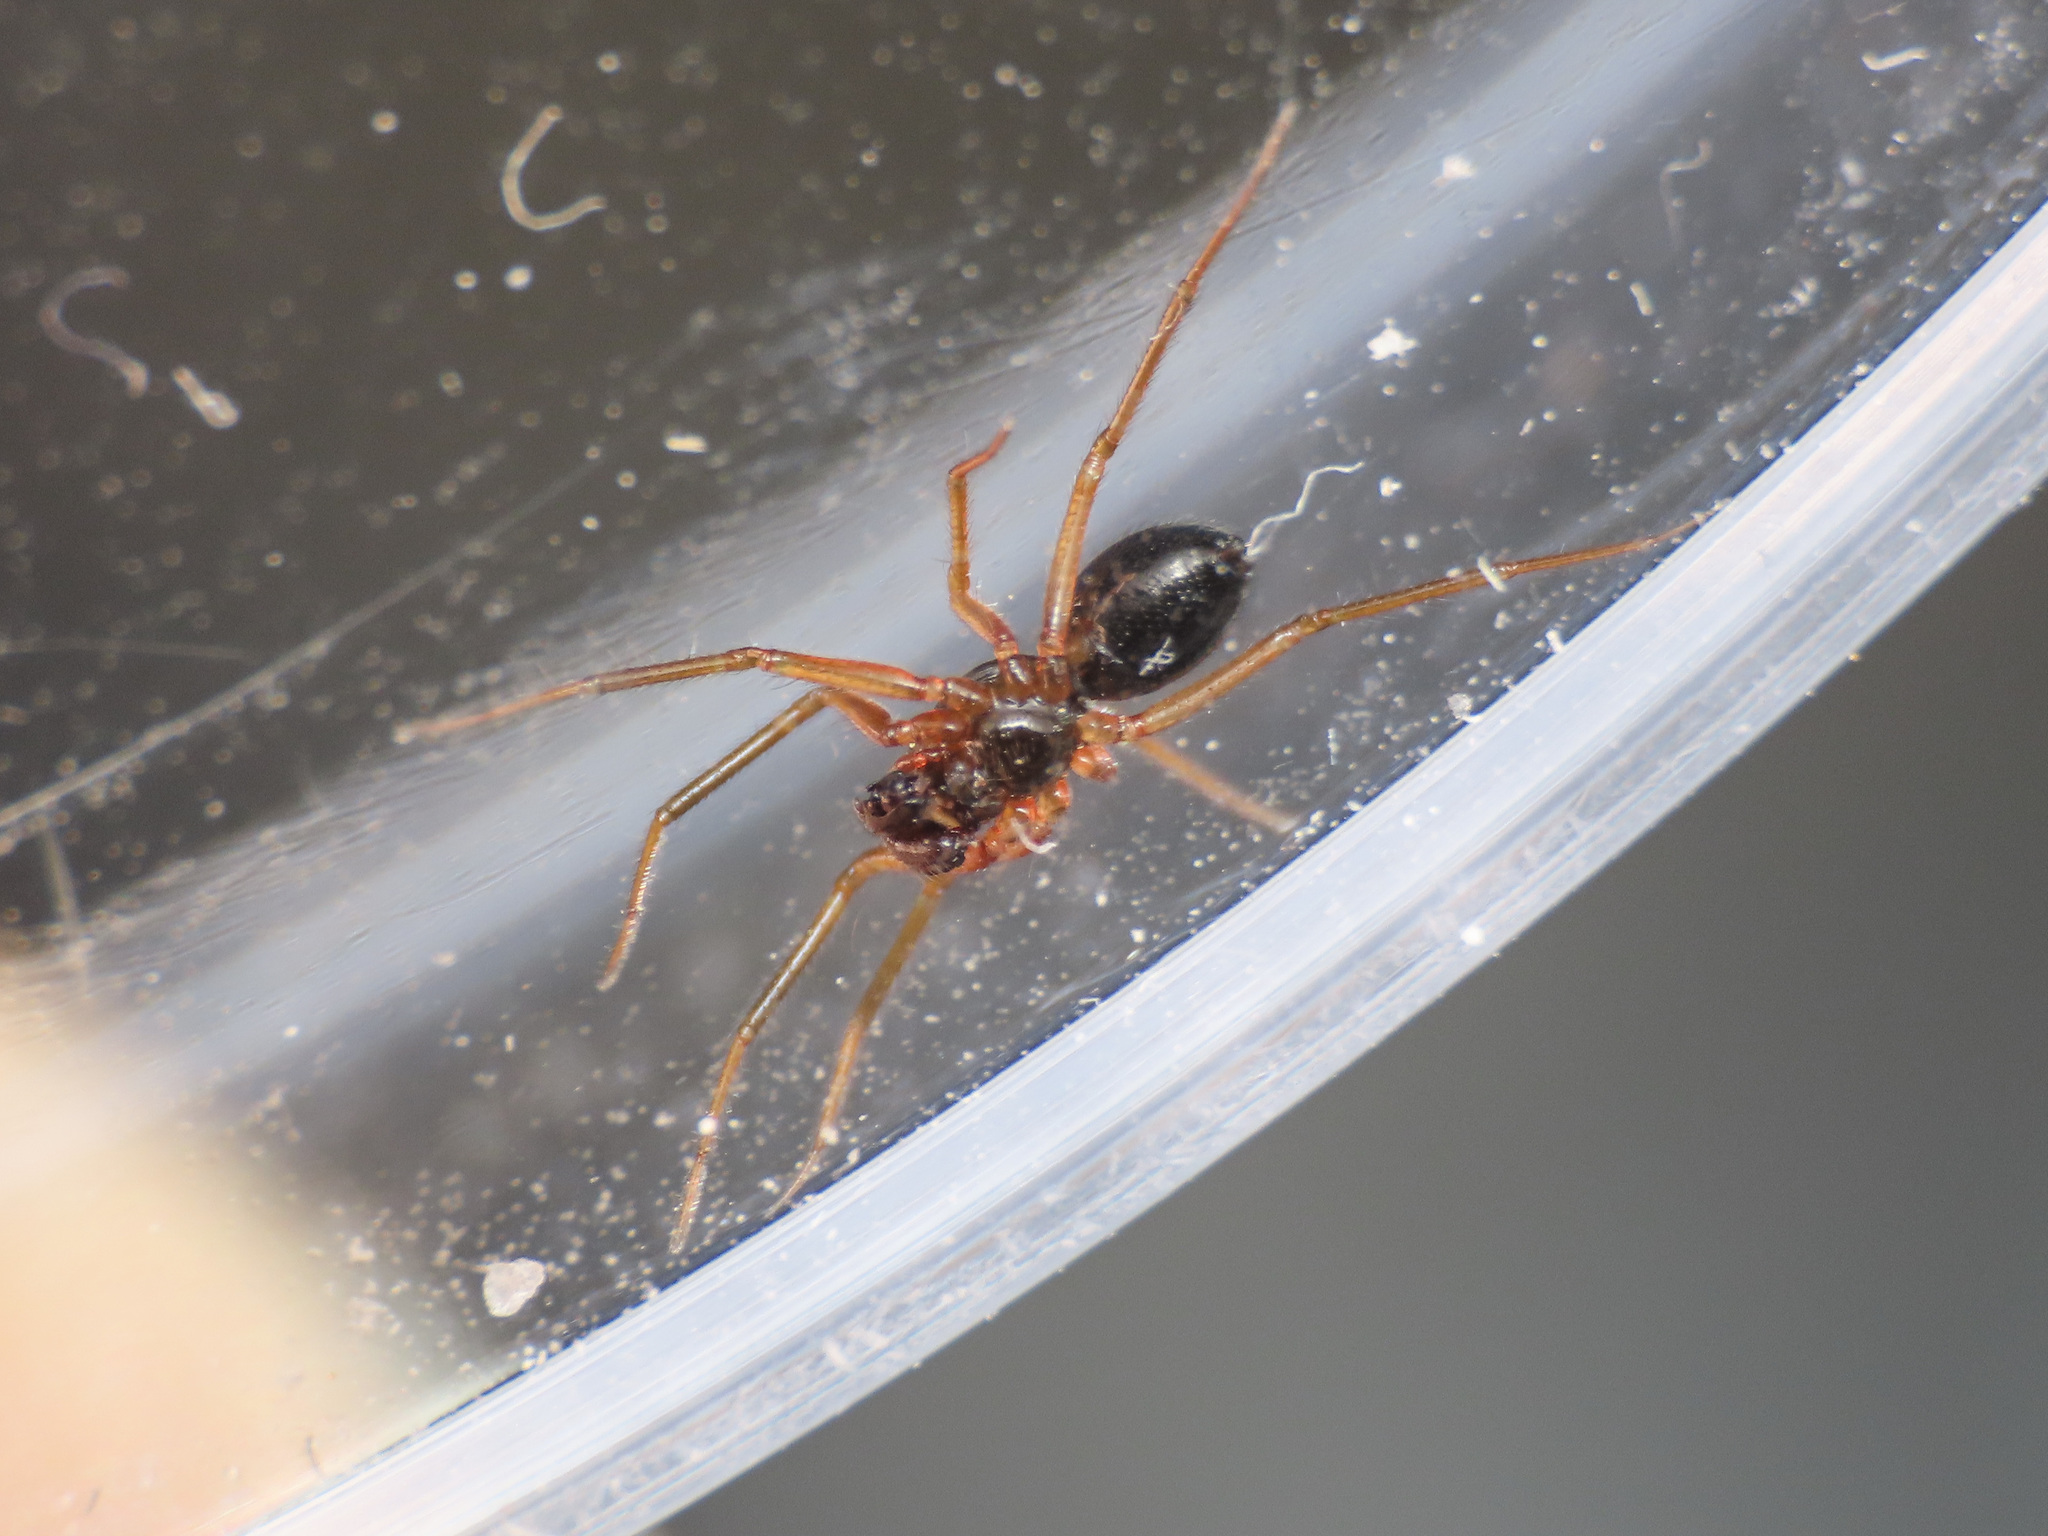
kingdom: Animalia
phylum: Arthropoda
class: Arachnida
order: Araneae
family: Linyphiidae
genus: Sintula
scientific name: Sintula retroversus
